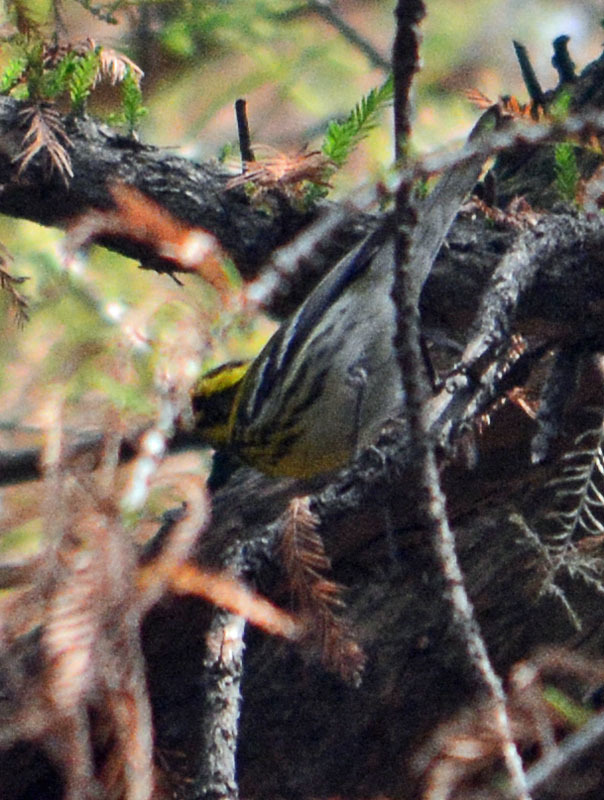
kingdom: Animalia
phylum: Chordata
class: Aves
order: Passeriformes
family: Parulidae
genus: Setophaga
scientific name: Setophaga townsendi
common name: Townsend's warbler
